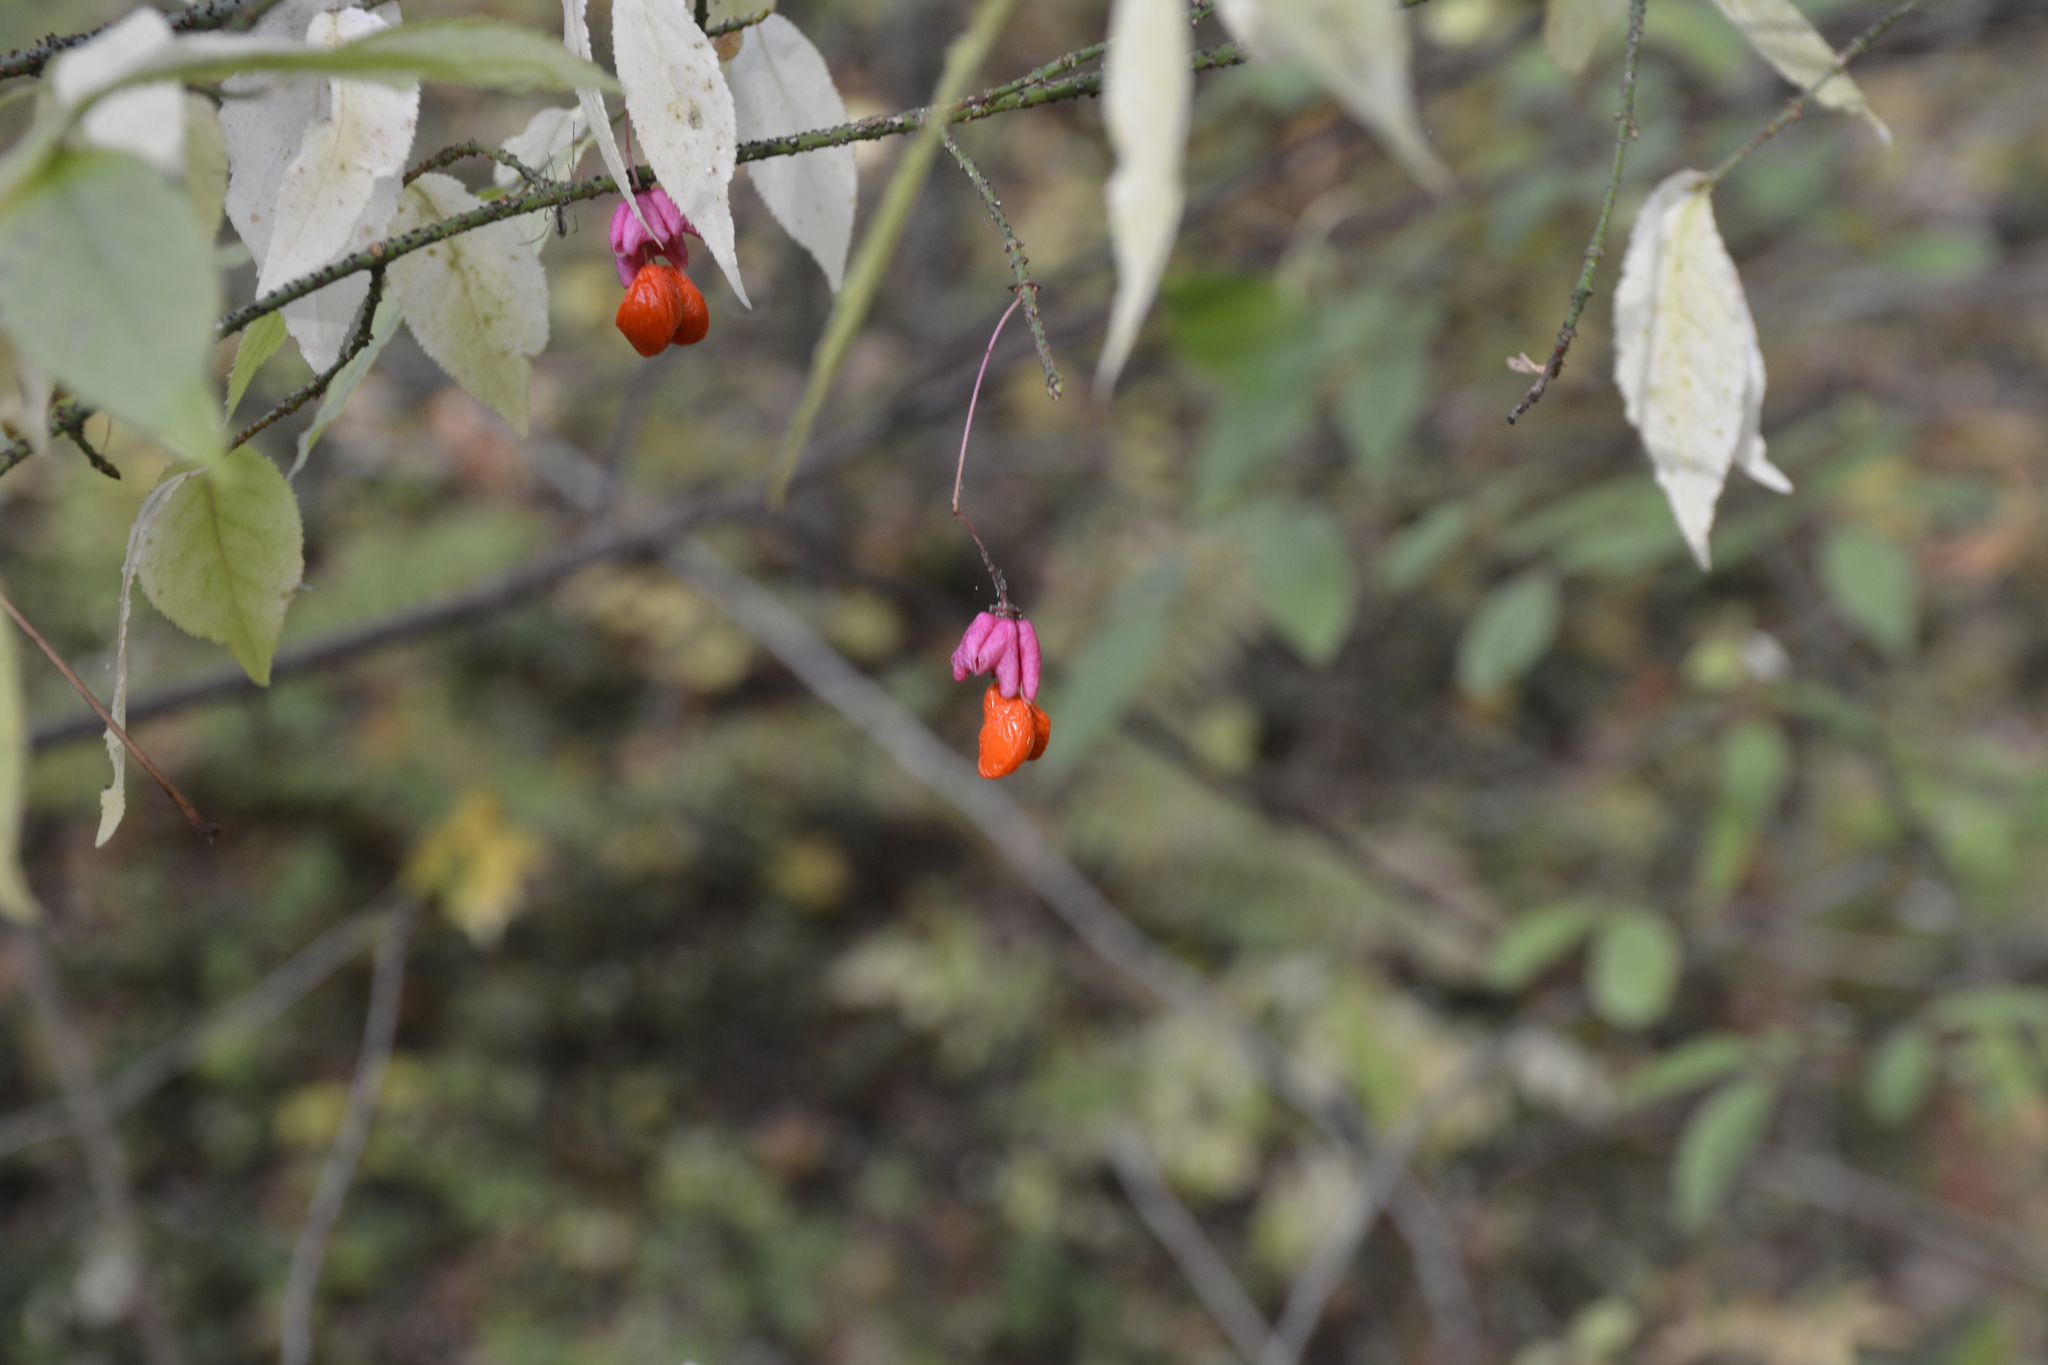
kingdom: Plantae
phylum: Tracheophyta
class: Magnoliopsida
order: Celastrales
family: Celastraceae
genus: Euonymus
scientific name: Euonymus verrucosus
